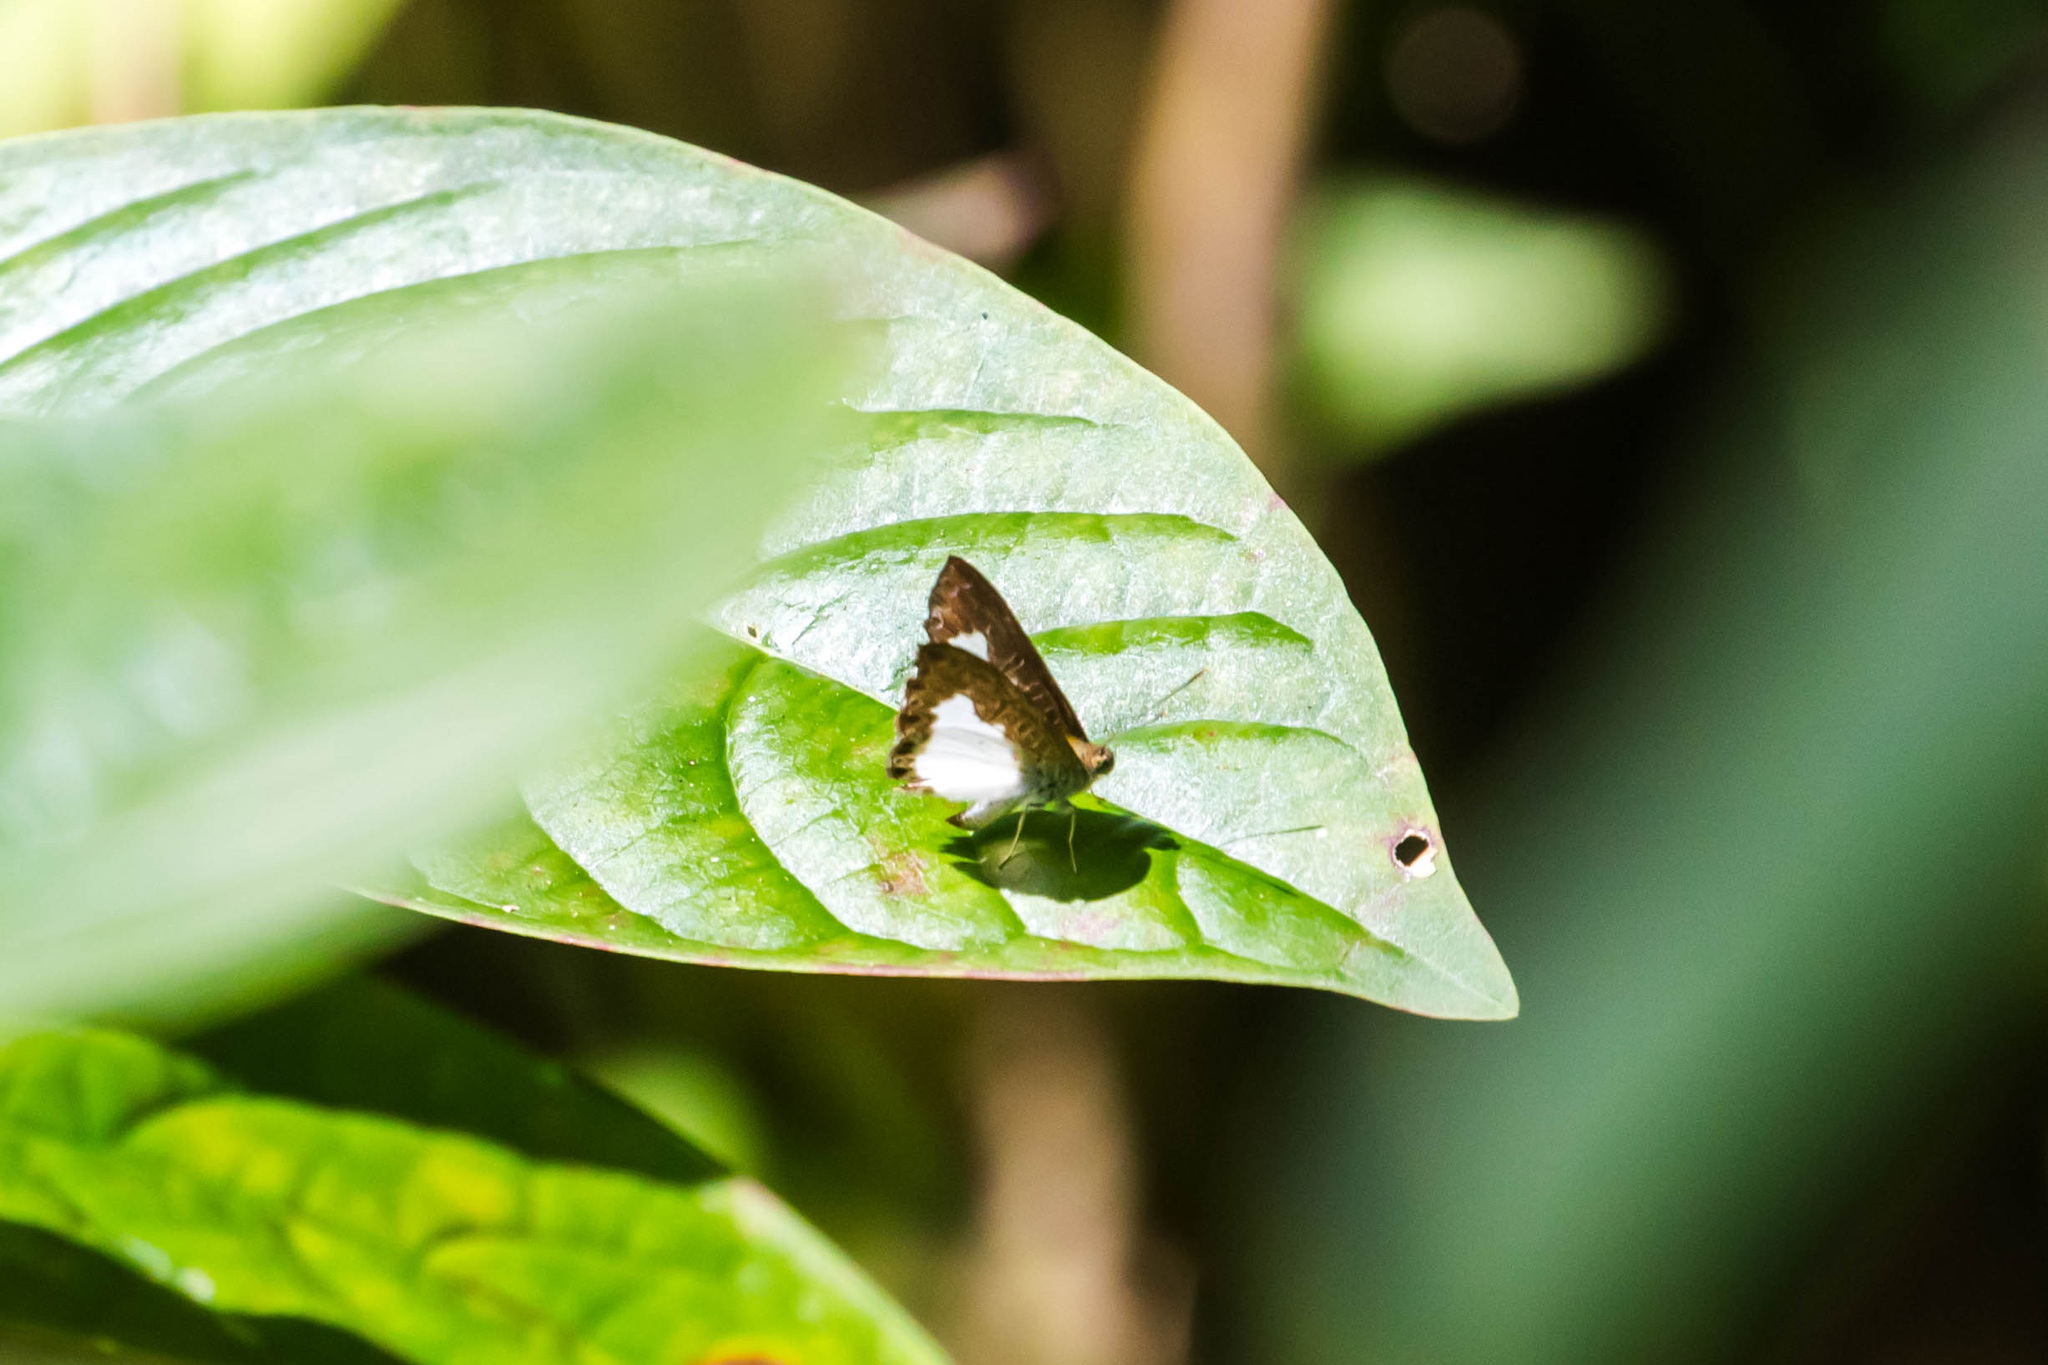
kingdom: Animalia
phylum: Arthropoda
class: Insecta
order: Lepidoptera
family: Riodinidae
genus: Juditha
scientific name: Juditha lamis
